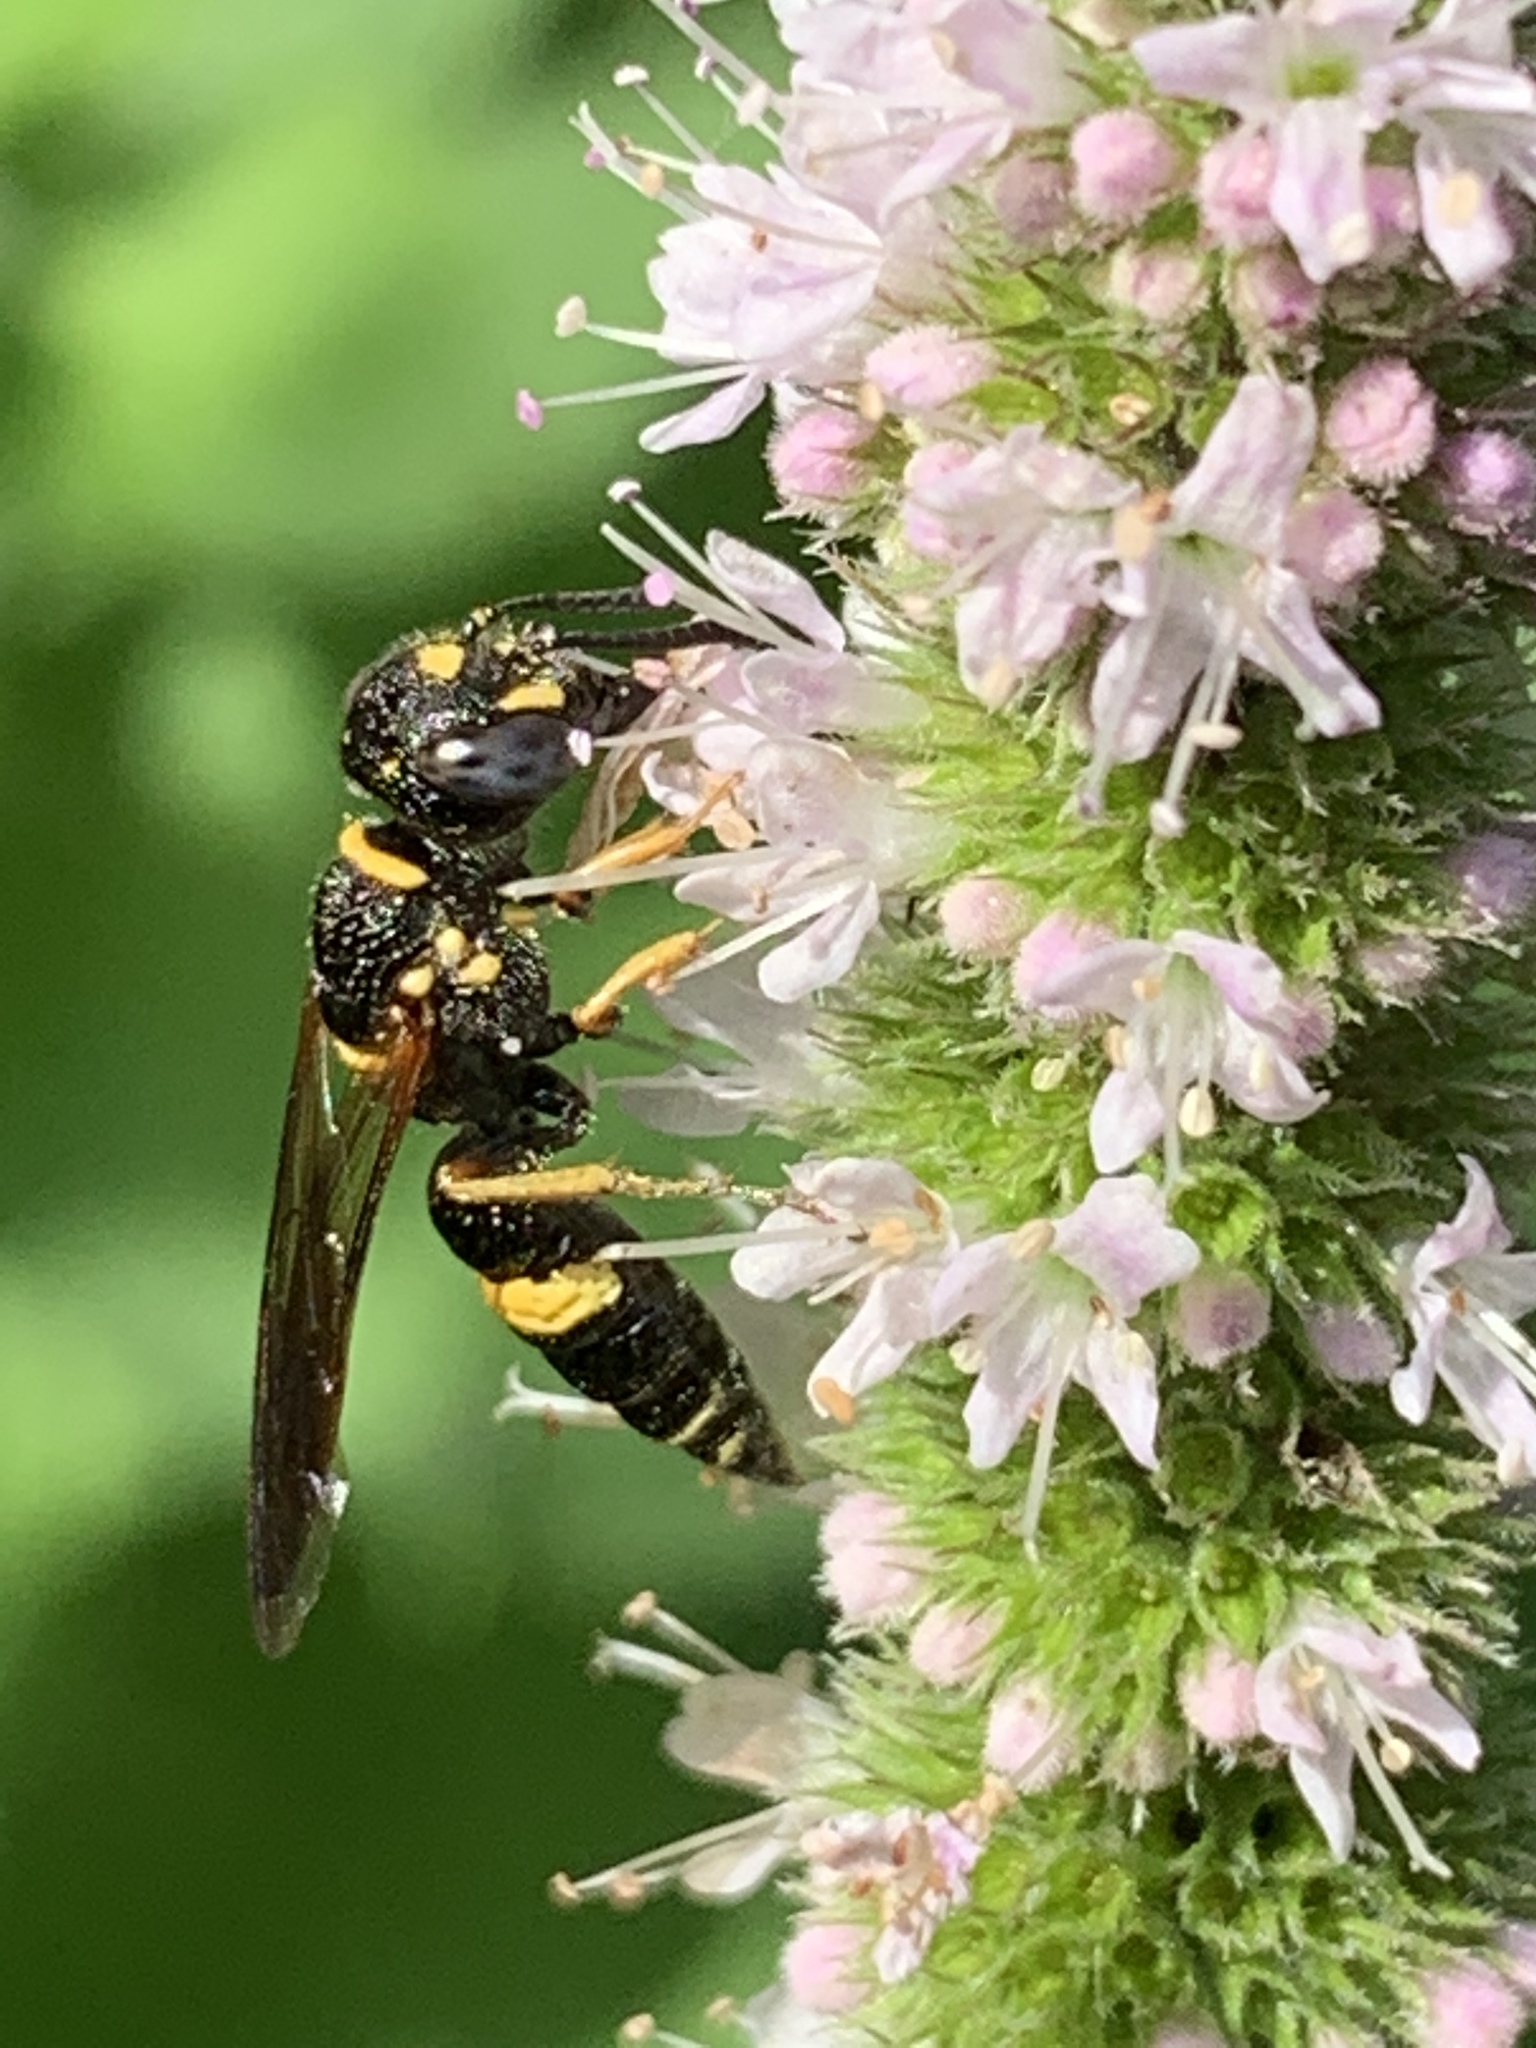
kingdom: Animalia
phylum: Arthropoda
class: Insecta
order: Hymenoptera
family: Crabronidae
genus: Philanthus
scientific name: Philanthus gibbosus
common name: Humped beewolf
